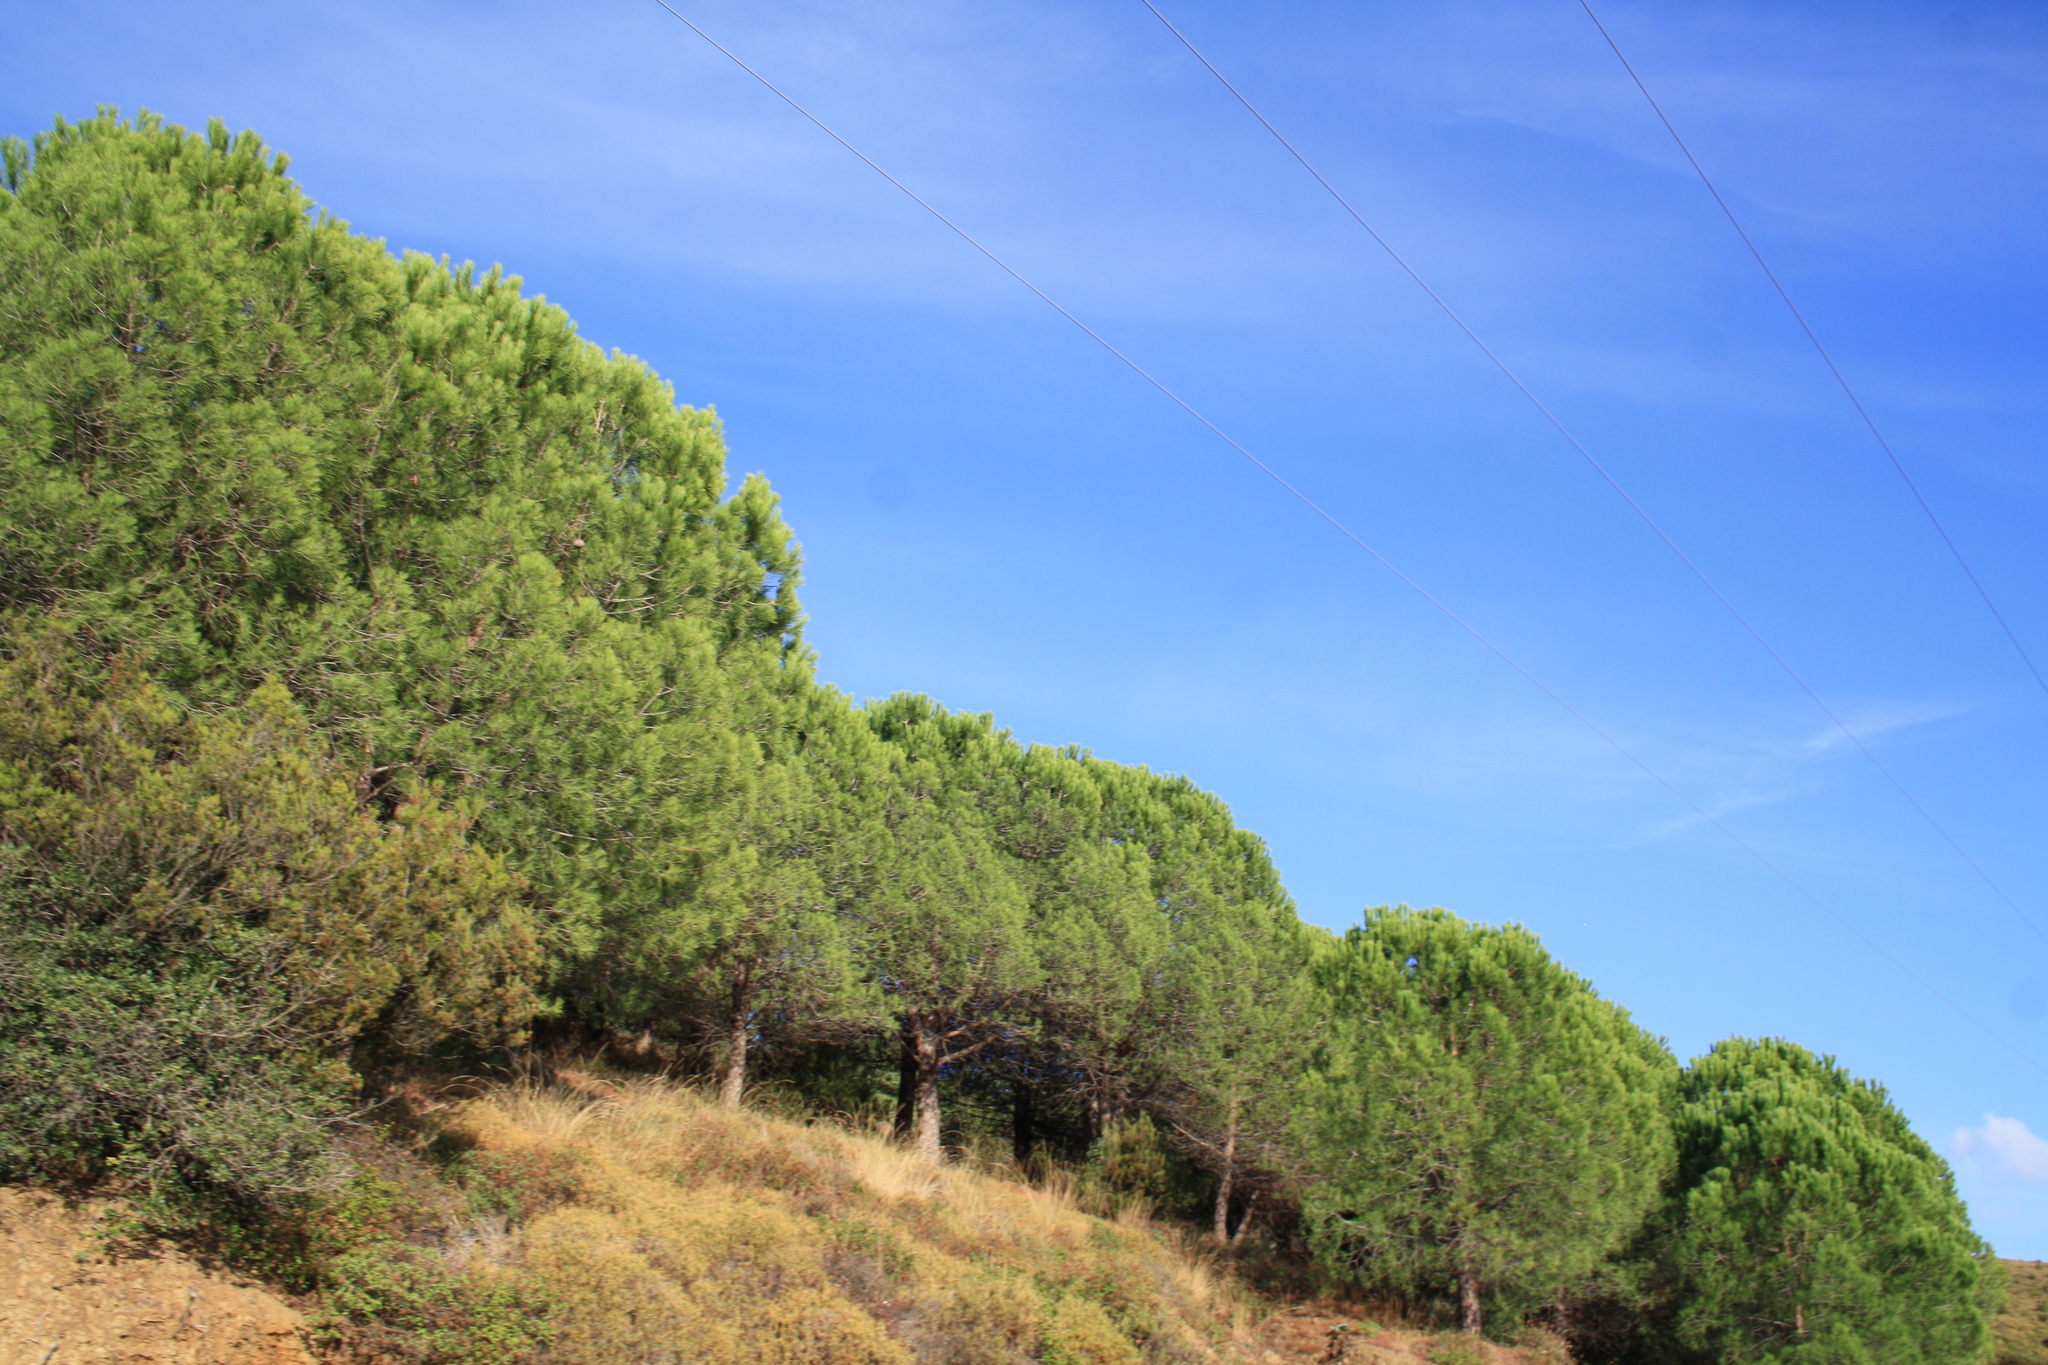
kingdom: Plantae
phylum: Tracheophyta
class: Pinopsida
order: Pinales
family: Pinaceae
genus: Pinus
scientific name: Pinus pinea
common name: Italian stone pine
